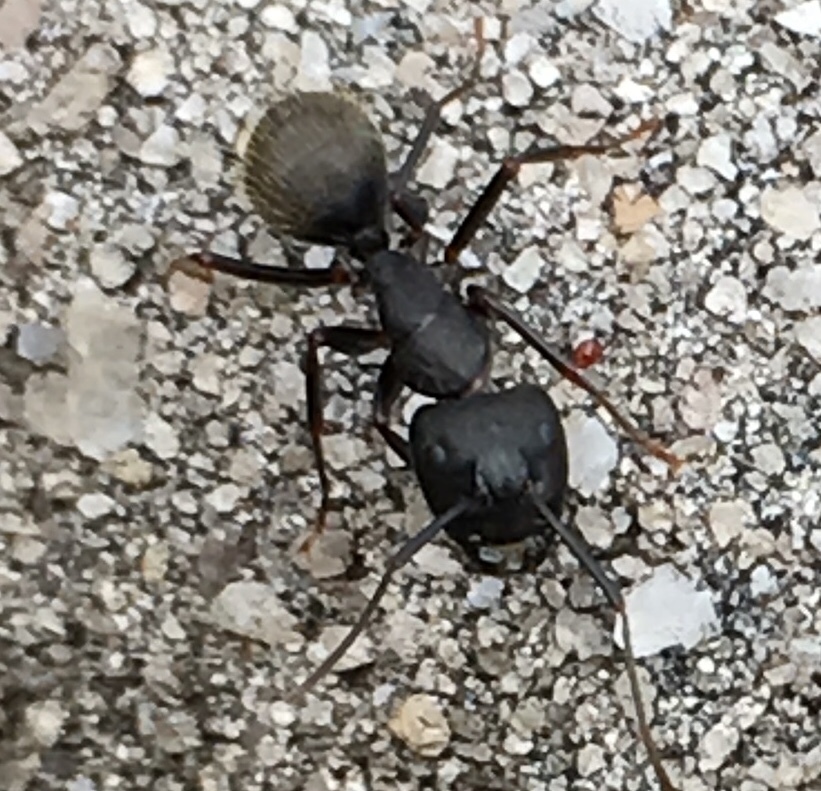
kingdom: Animalia
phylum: Arthropoda
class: Insecta
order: Hymenoptera
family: Formicidae
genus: Camponotus
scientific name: Camponotus pennsylvanicus
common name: Black carpenter ant
